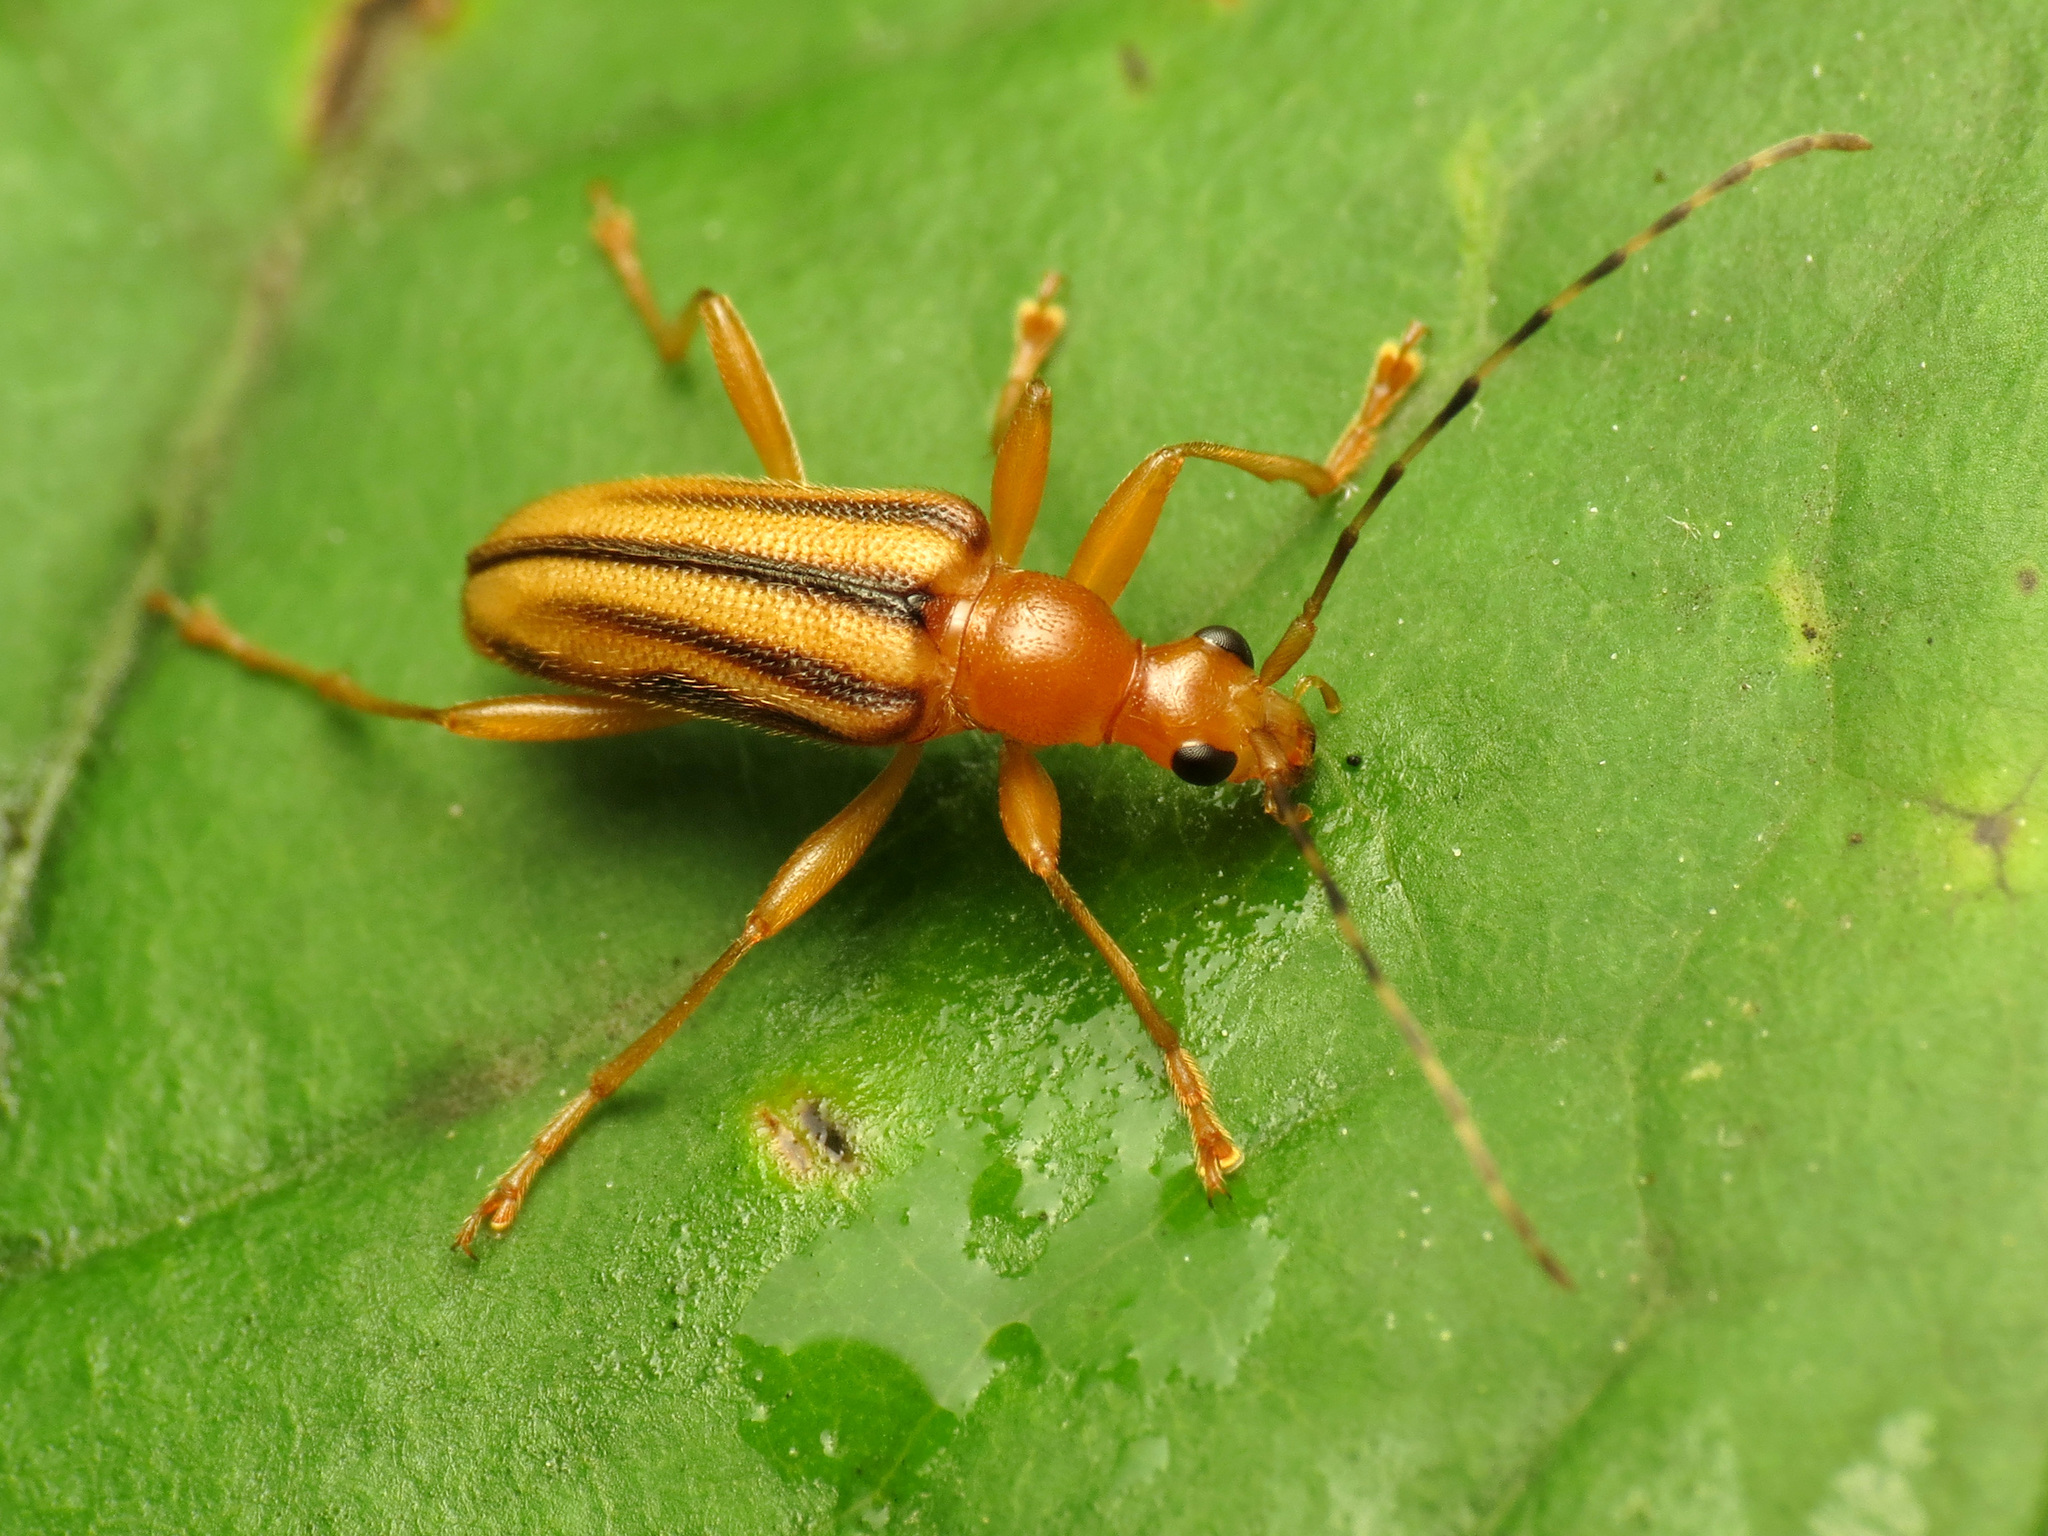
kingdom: Animalia
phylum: Arthropoda
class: Insecta
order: Coleoptera
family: Cerambycidae
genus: Metacmaeops
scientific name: Metacmaeops vittata
